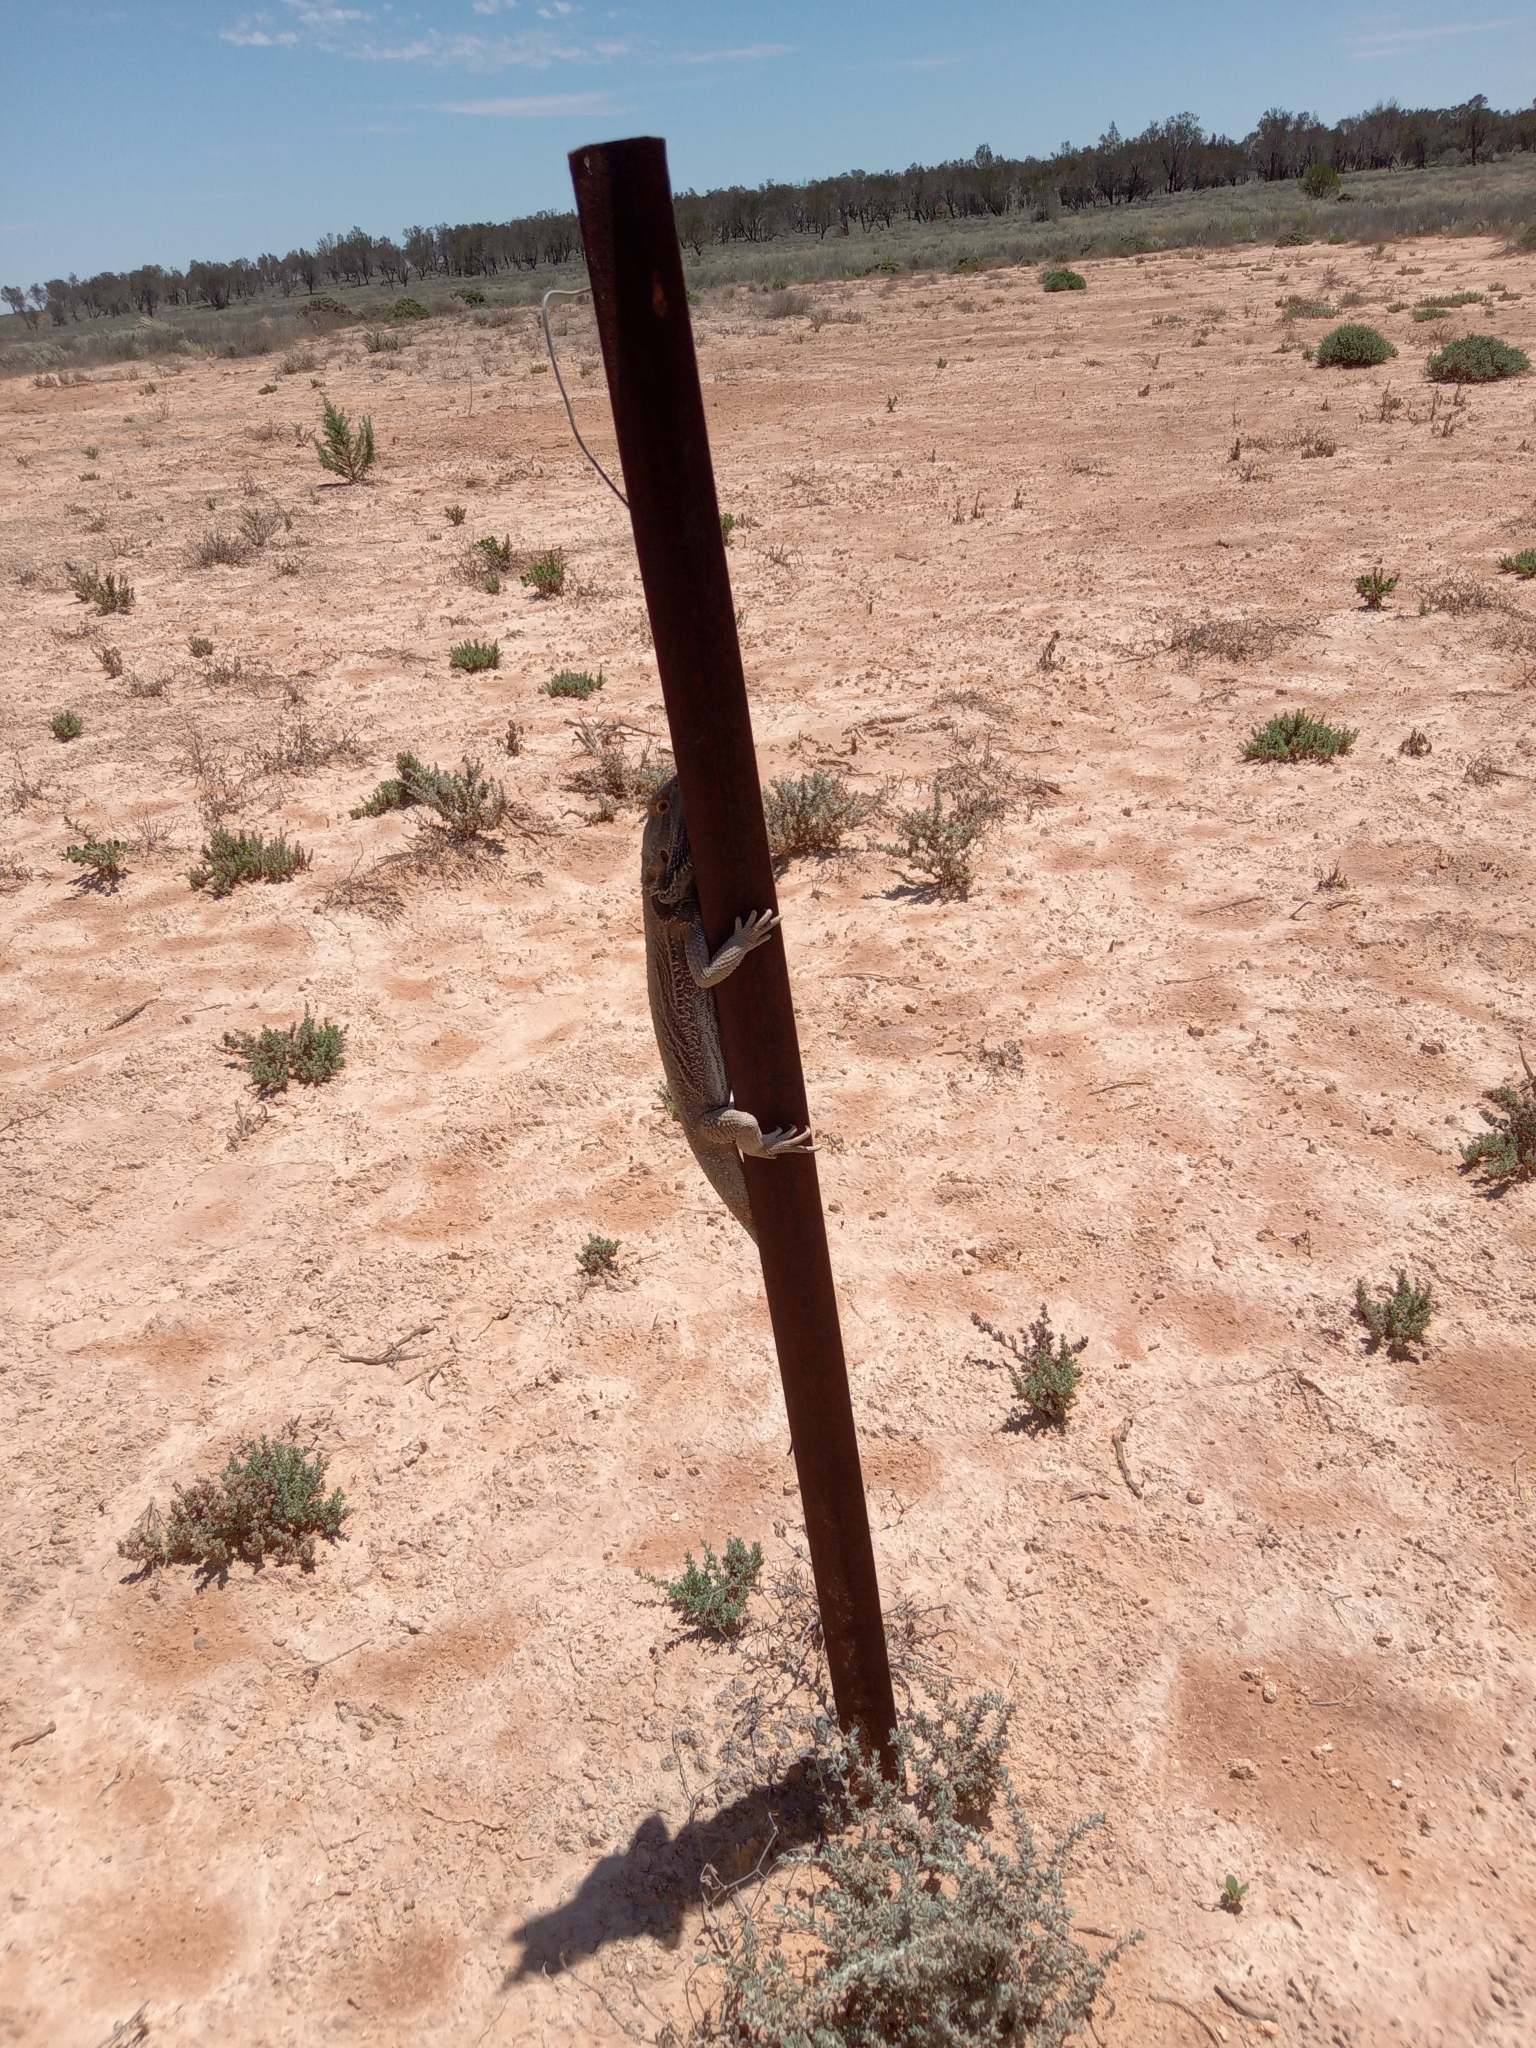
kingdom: Animalia
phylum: Chordata
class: Squamata
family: Agamidae
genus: Pogona
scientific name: Pogona vitticeps
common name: Central bearded dragon
